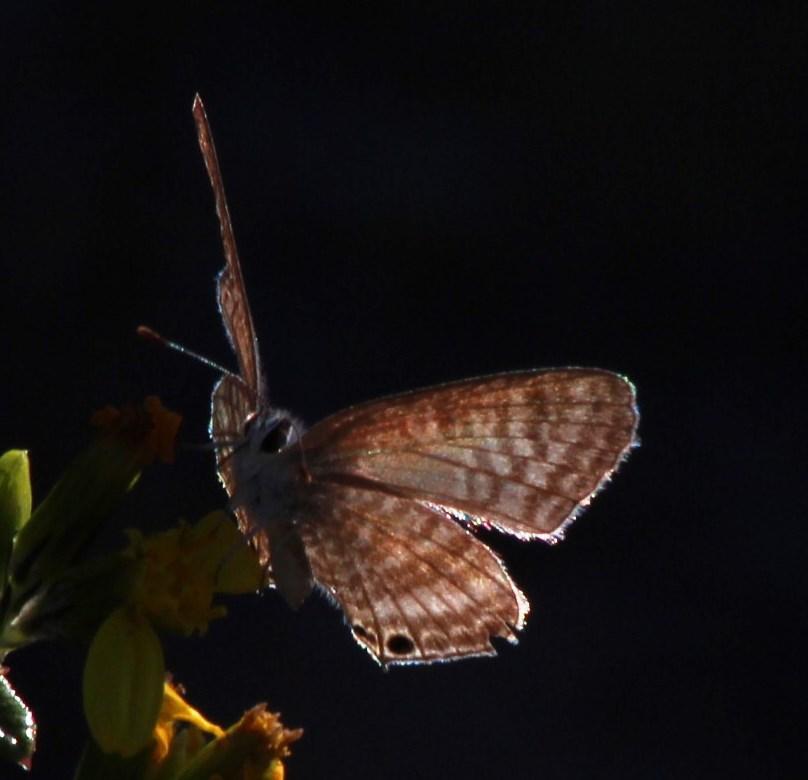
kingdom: Animalia
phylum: Arthropoda
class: Insecta
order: Lepidoptera
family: Lycaenidae
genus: Lampides
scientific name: Lampides boeticus
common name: Long-tailed blue
